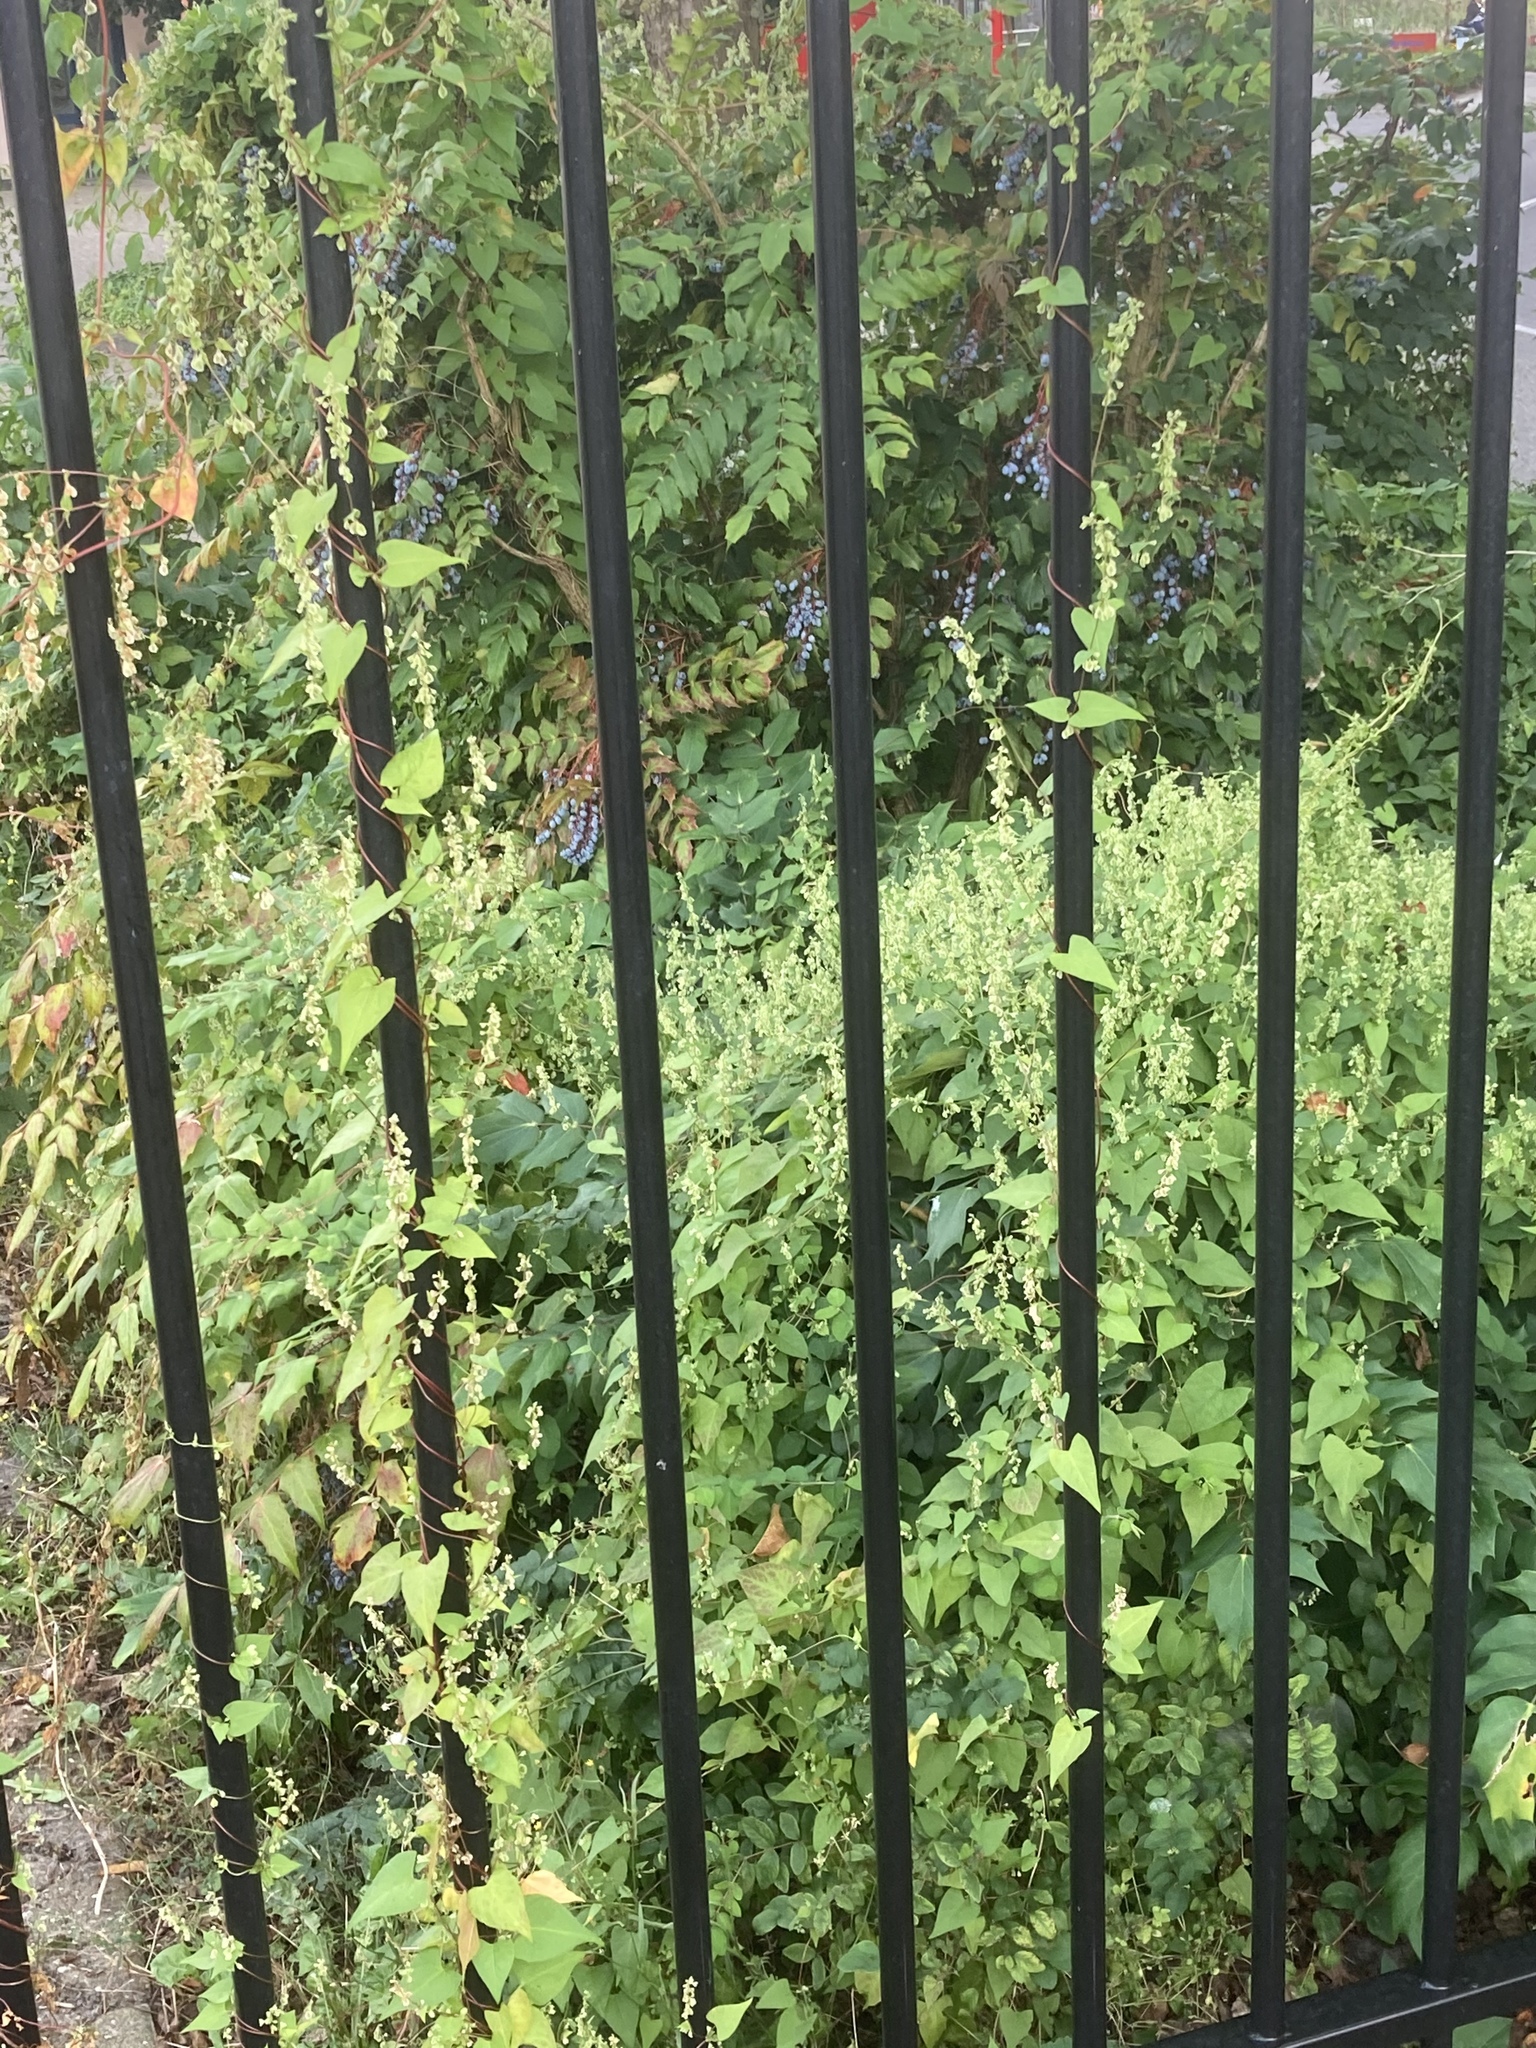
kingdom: Plantae
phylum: Tracheophyta
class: Magnoliopsida
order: Caryophyllales
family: Polygonaceae
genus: Fallopia
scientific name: Fallopia dumetorum
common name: Copse-bindweed
